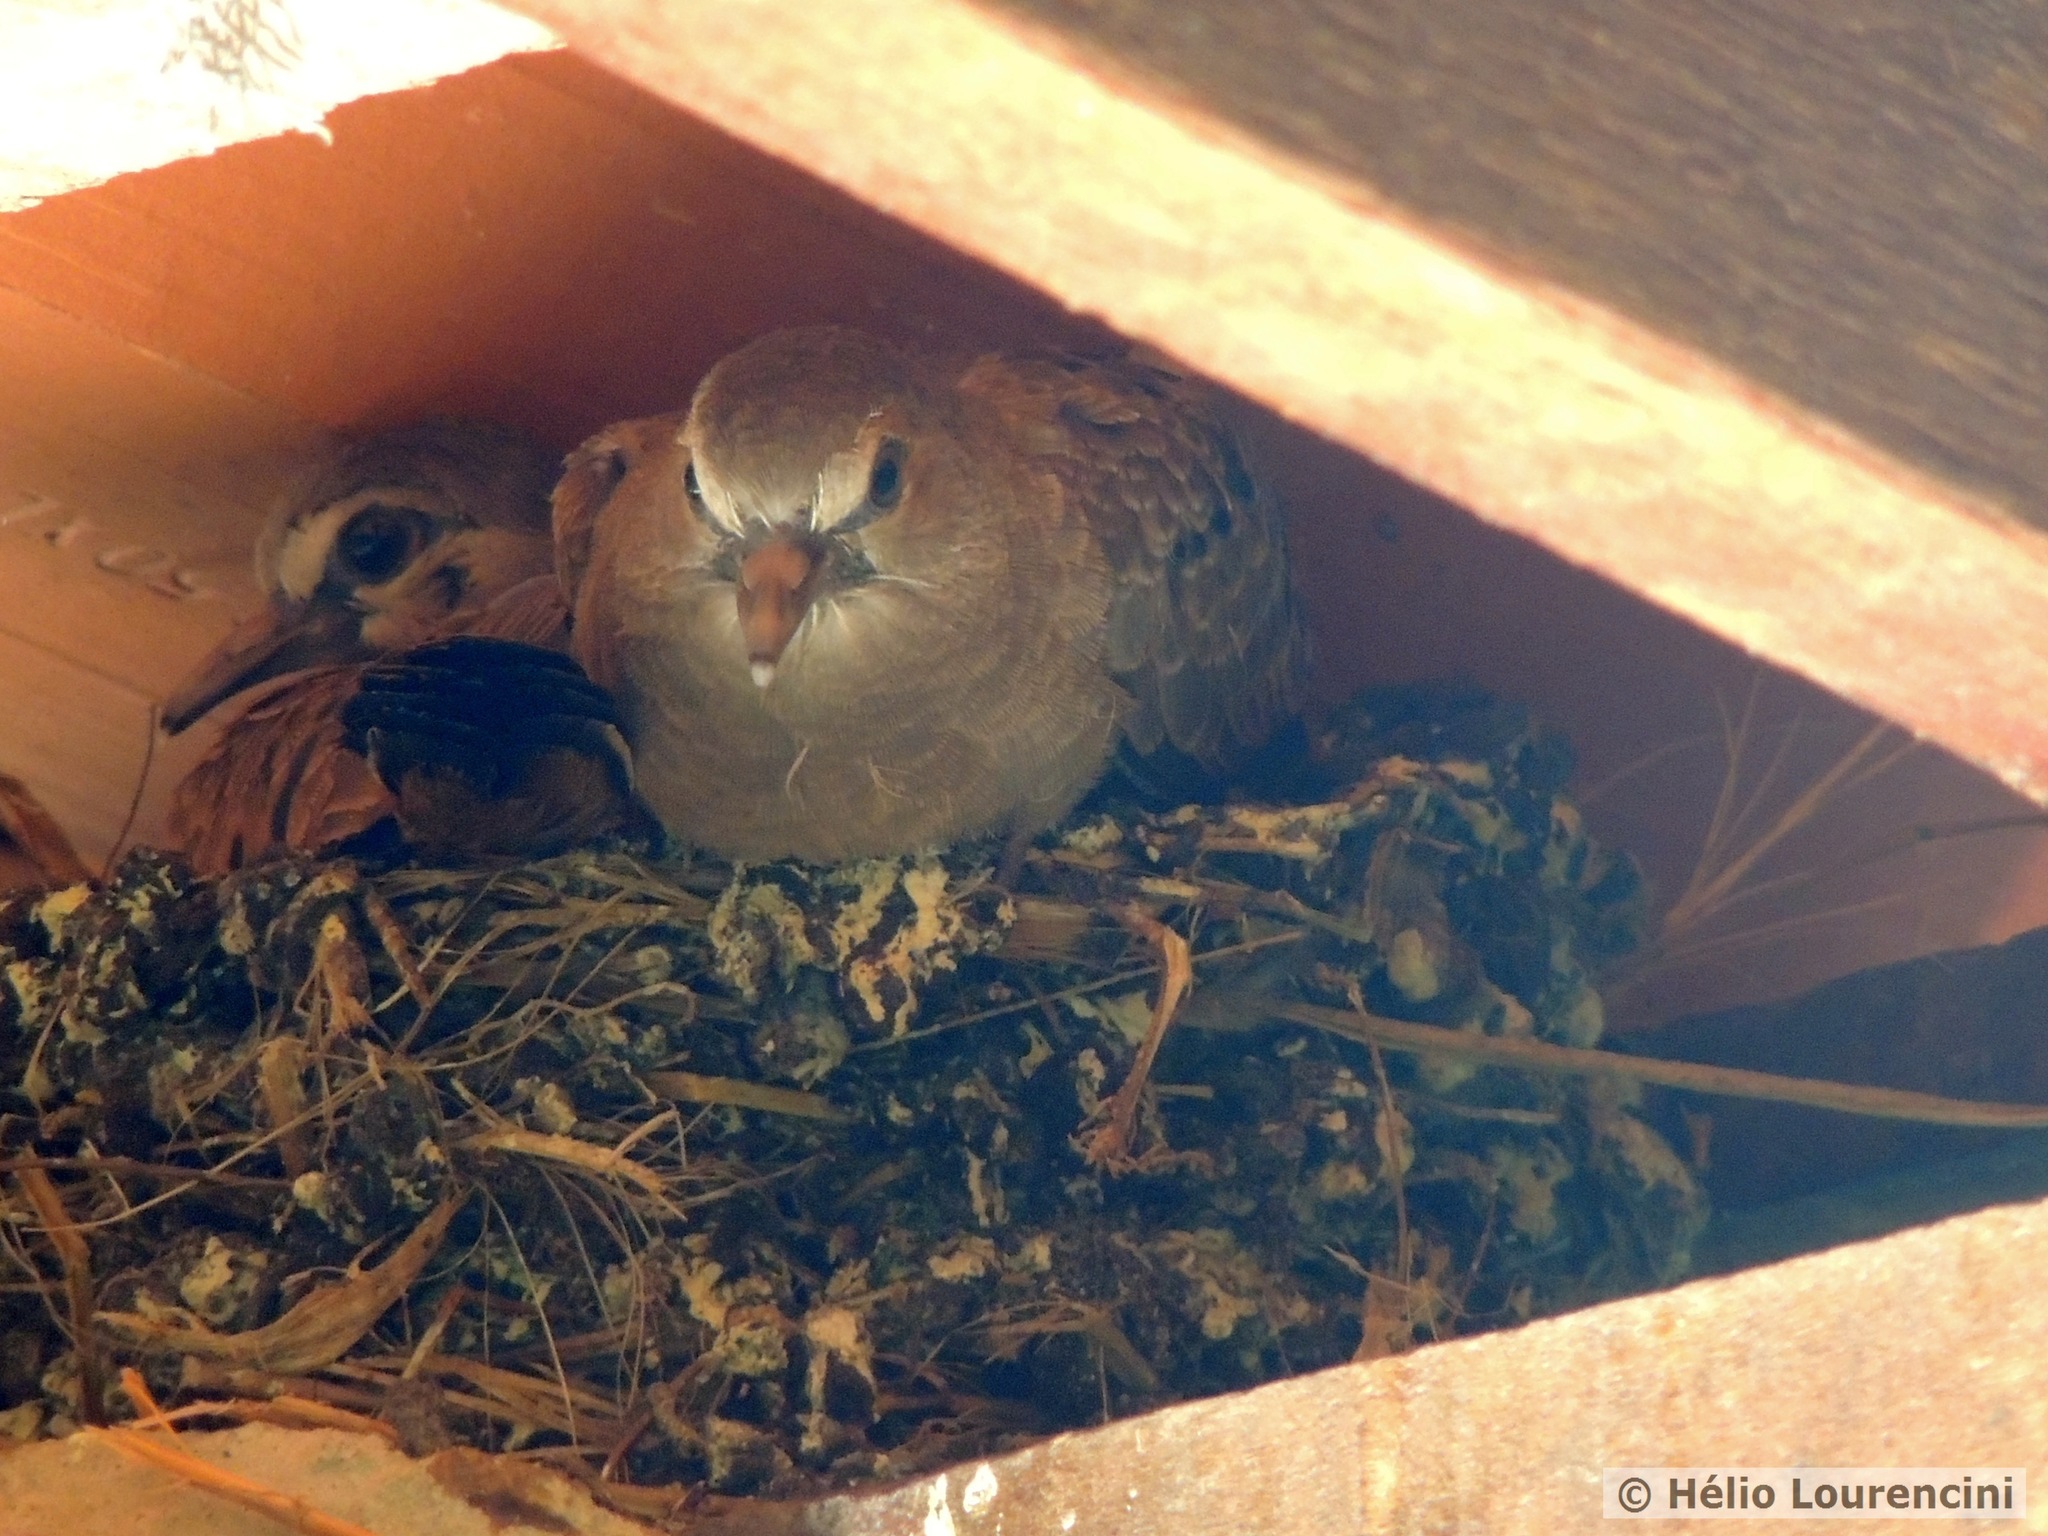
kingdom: Animalia
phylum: Chordata
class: Aves
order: Columbiformes
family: Columbidae
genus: Columbina
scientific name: Columbina talpacoti
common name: Ruddy ground dove
